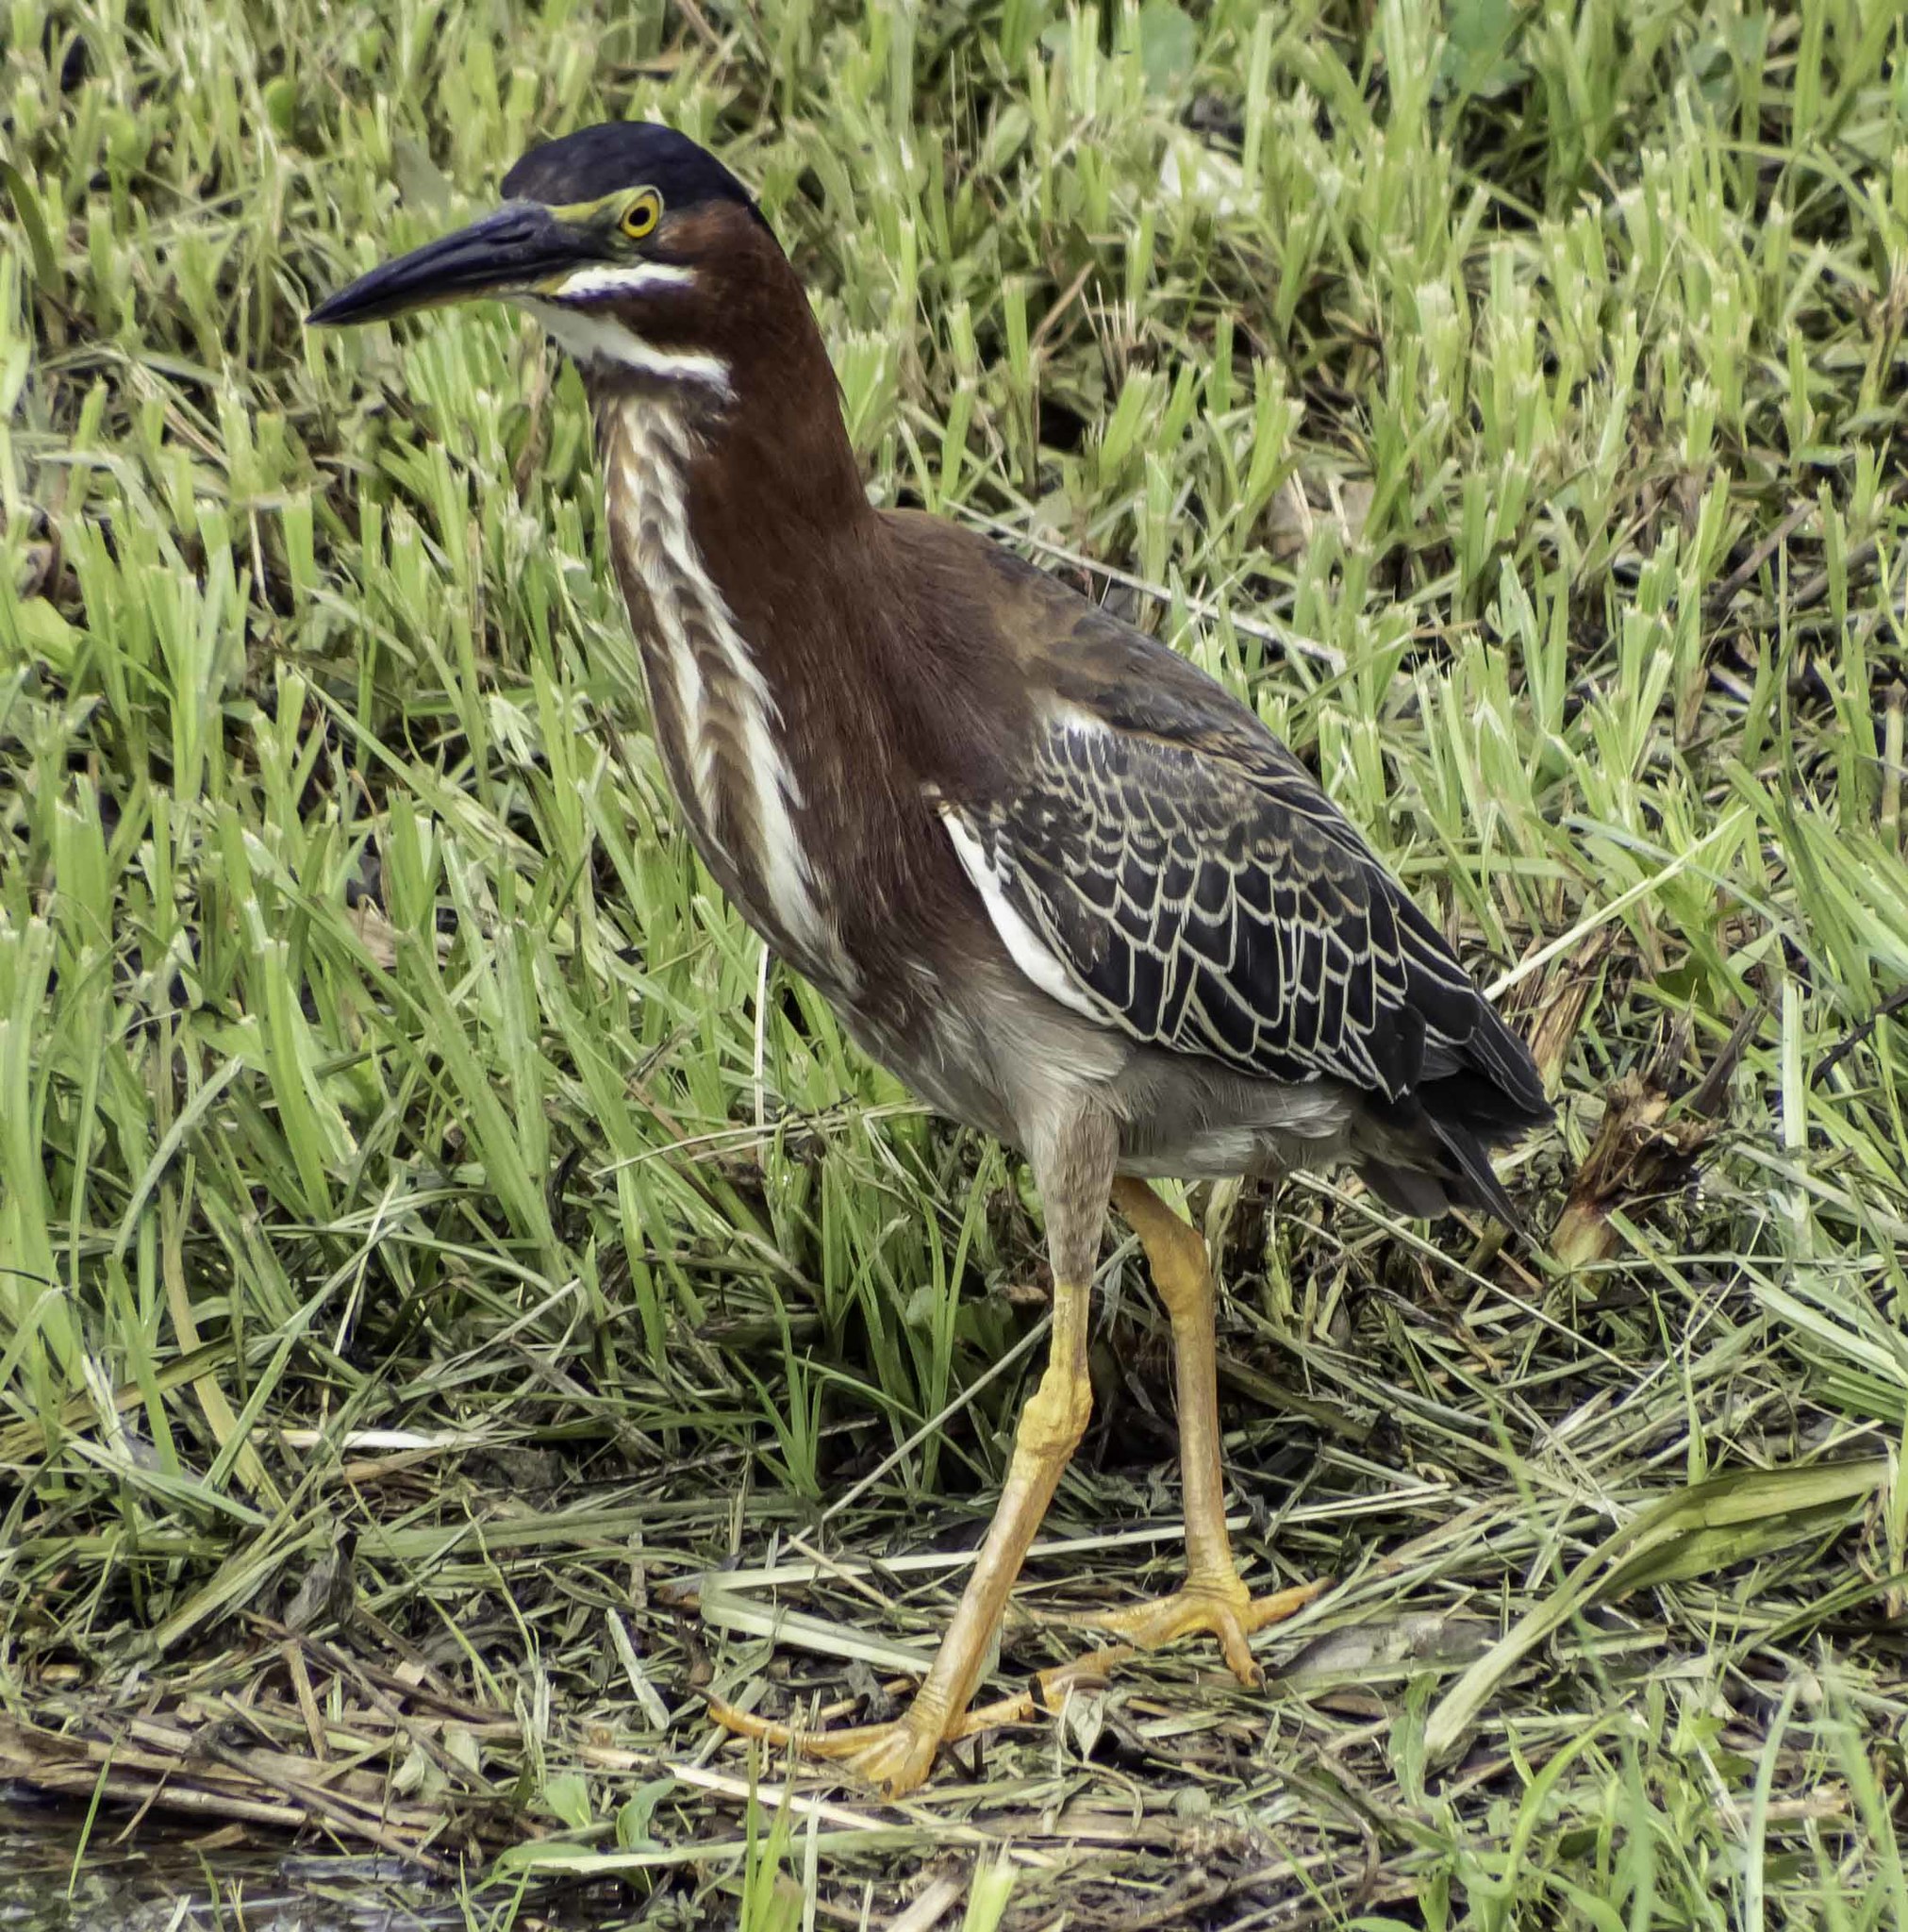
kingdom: Animalia
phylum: Chordata
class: Aves
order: Pelecaniformes
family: Ardeidae
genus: Butorides
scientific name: Butorides virescens
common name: Green heron
